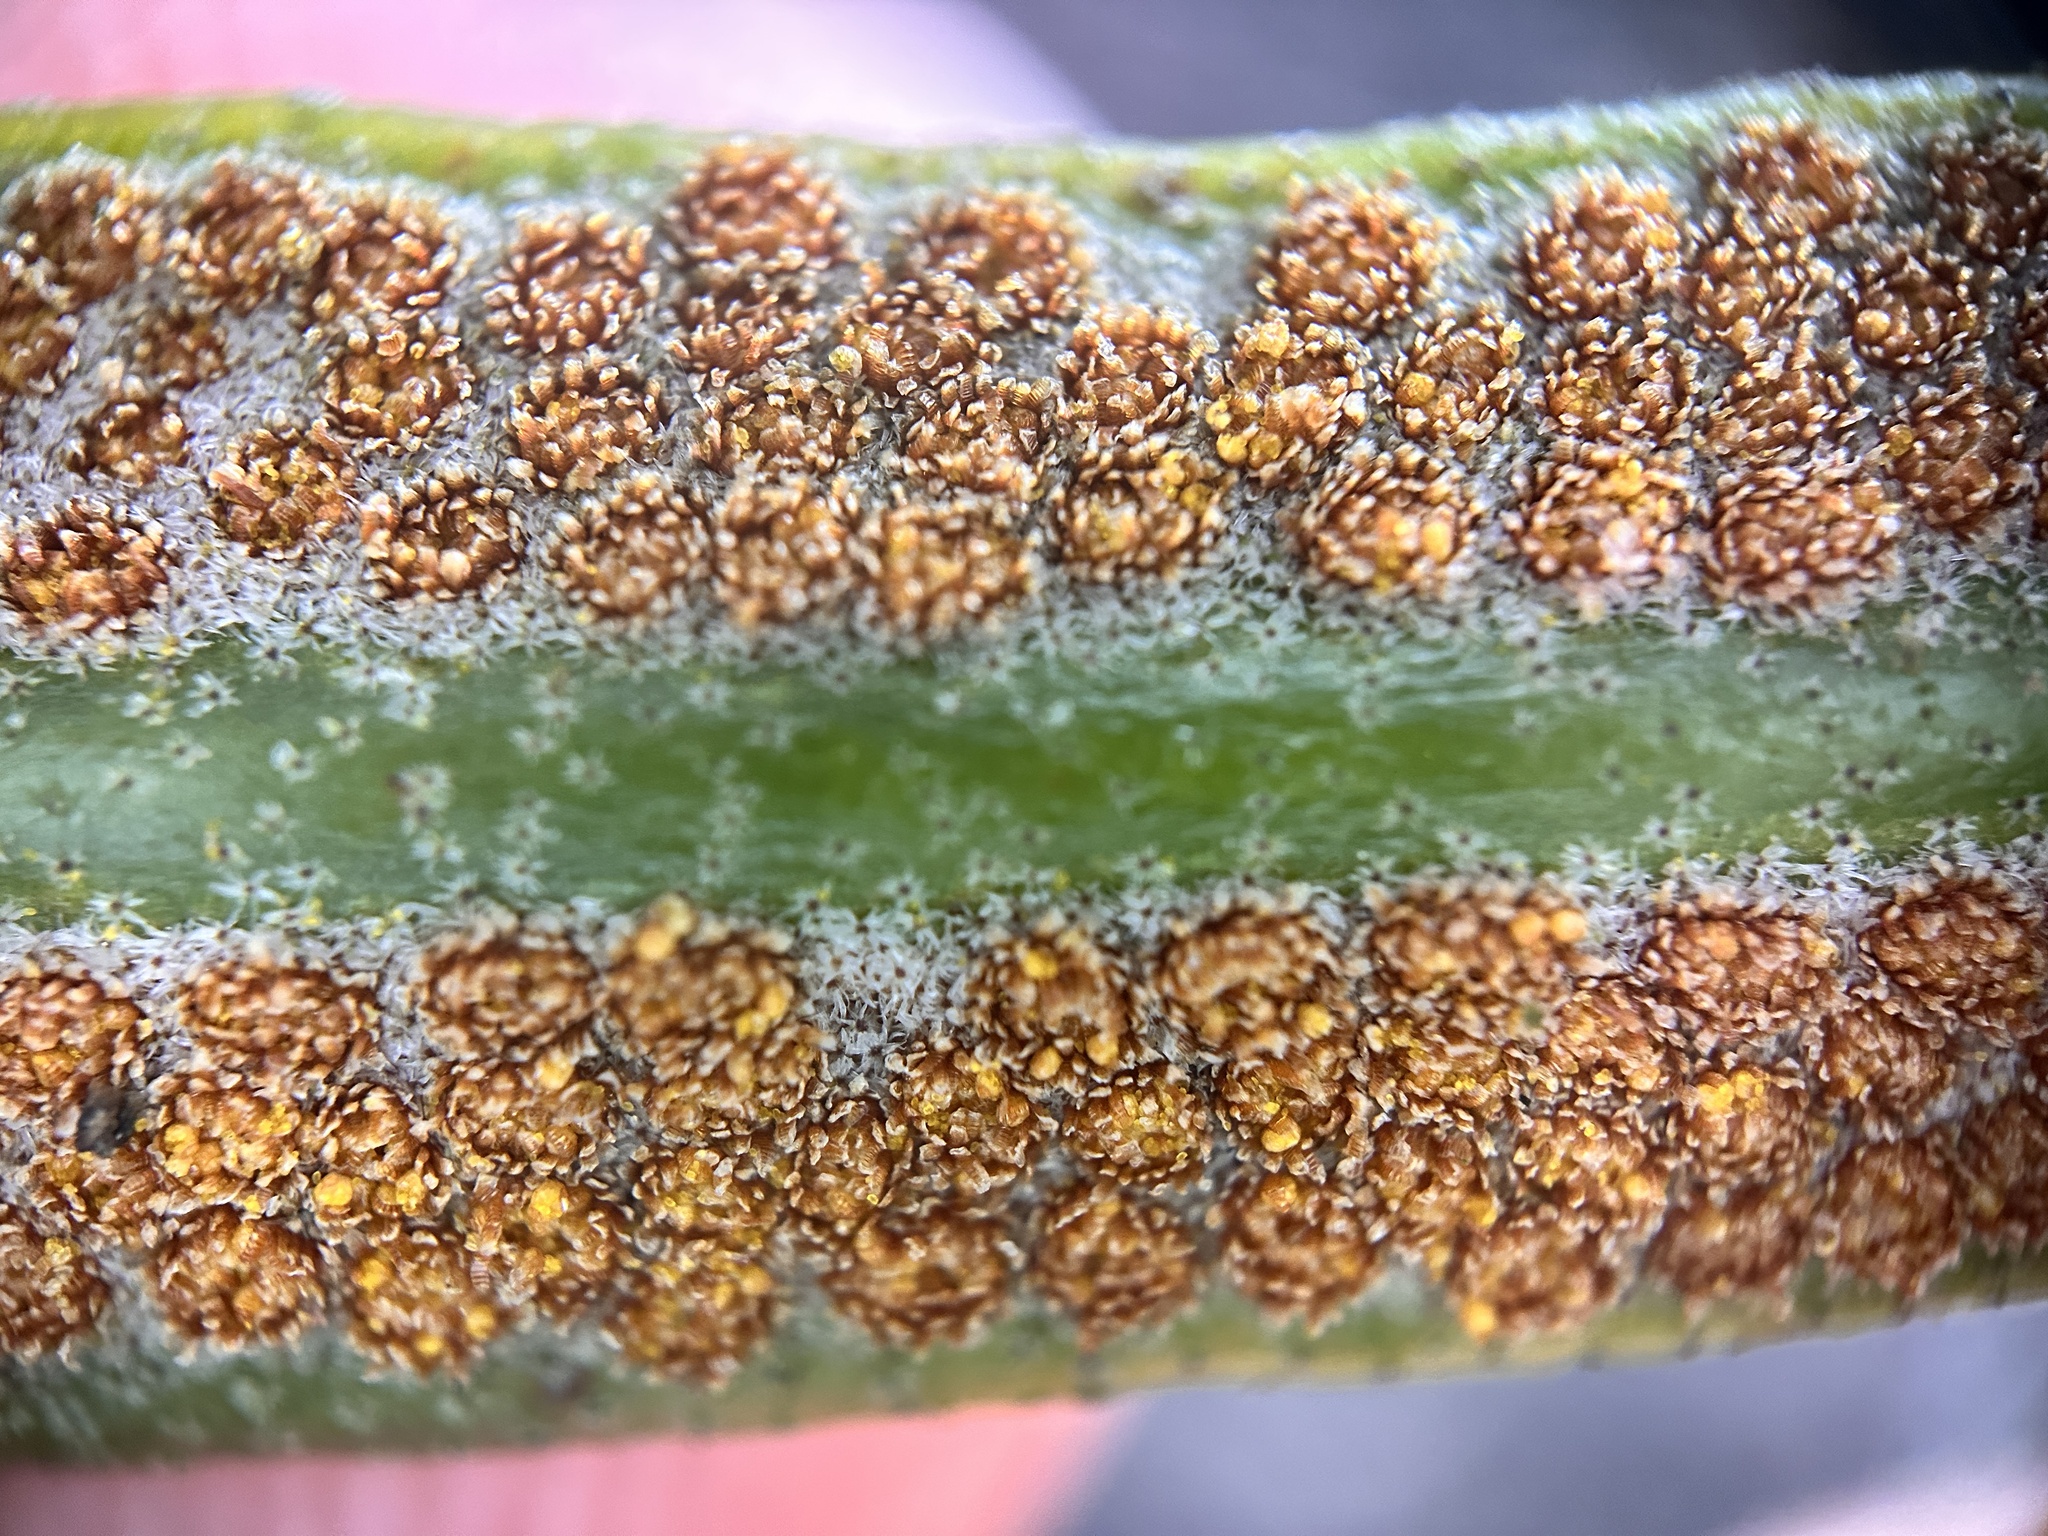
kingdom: Plantae
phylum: Tracheophyta
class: Polypodiopsida
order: Polypodiales
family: Polypodiaceae
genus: Pyrrosia
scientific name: Pyrrosia lanceolata
